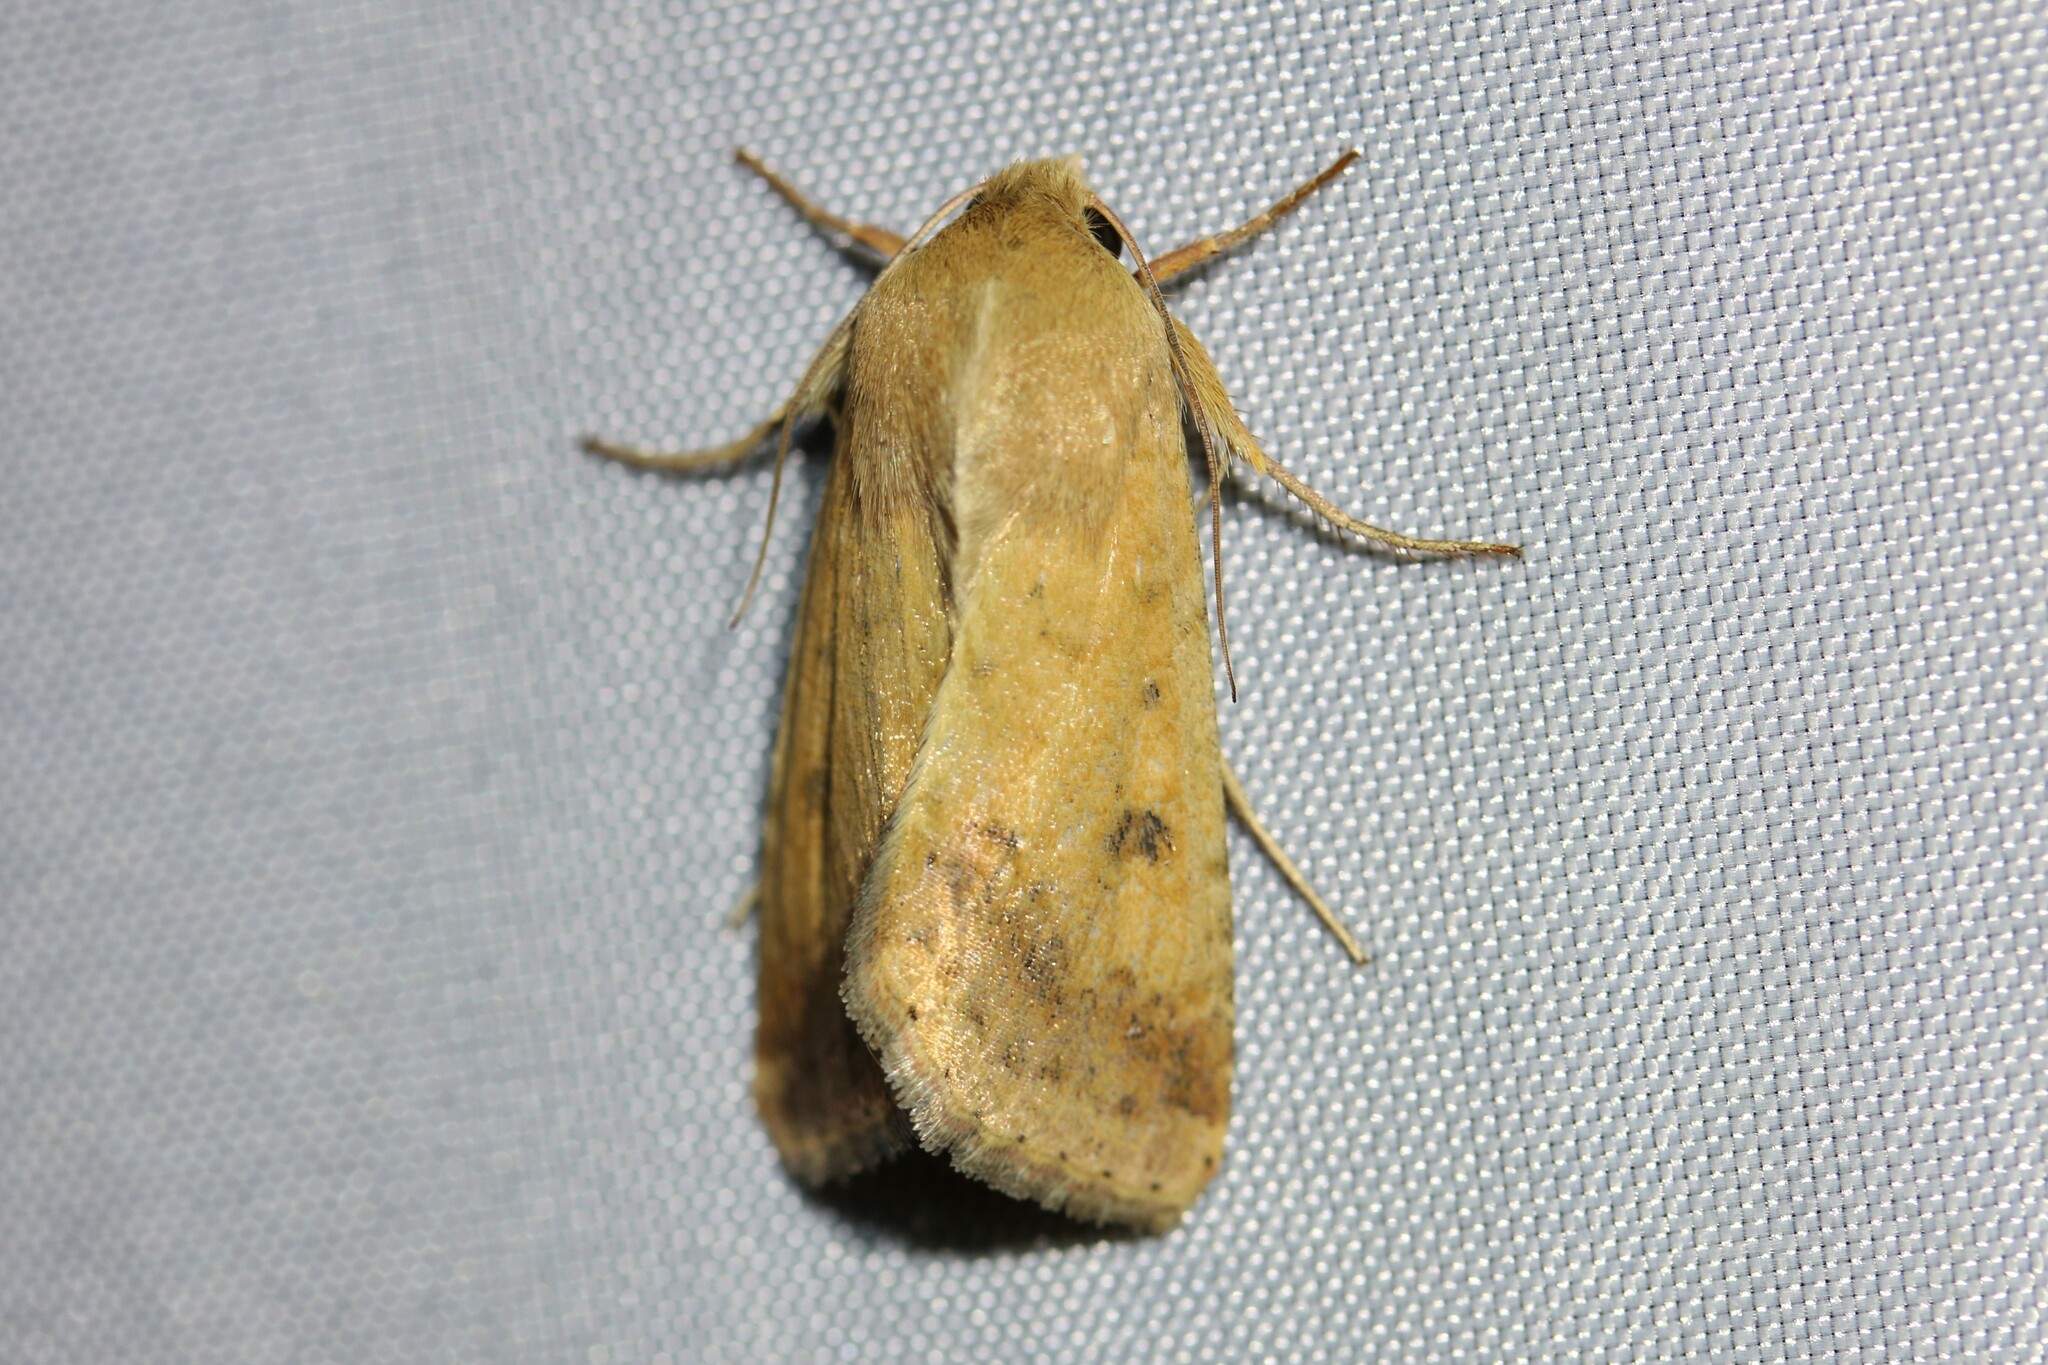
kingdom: Animalia
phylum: Arthropoda
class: Insecta
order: Lepidoptera
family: Noctuidae
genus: Helicoverpa
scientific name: Helicoverpa armigera
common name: Cotton bollworm
